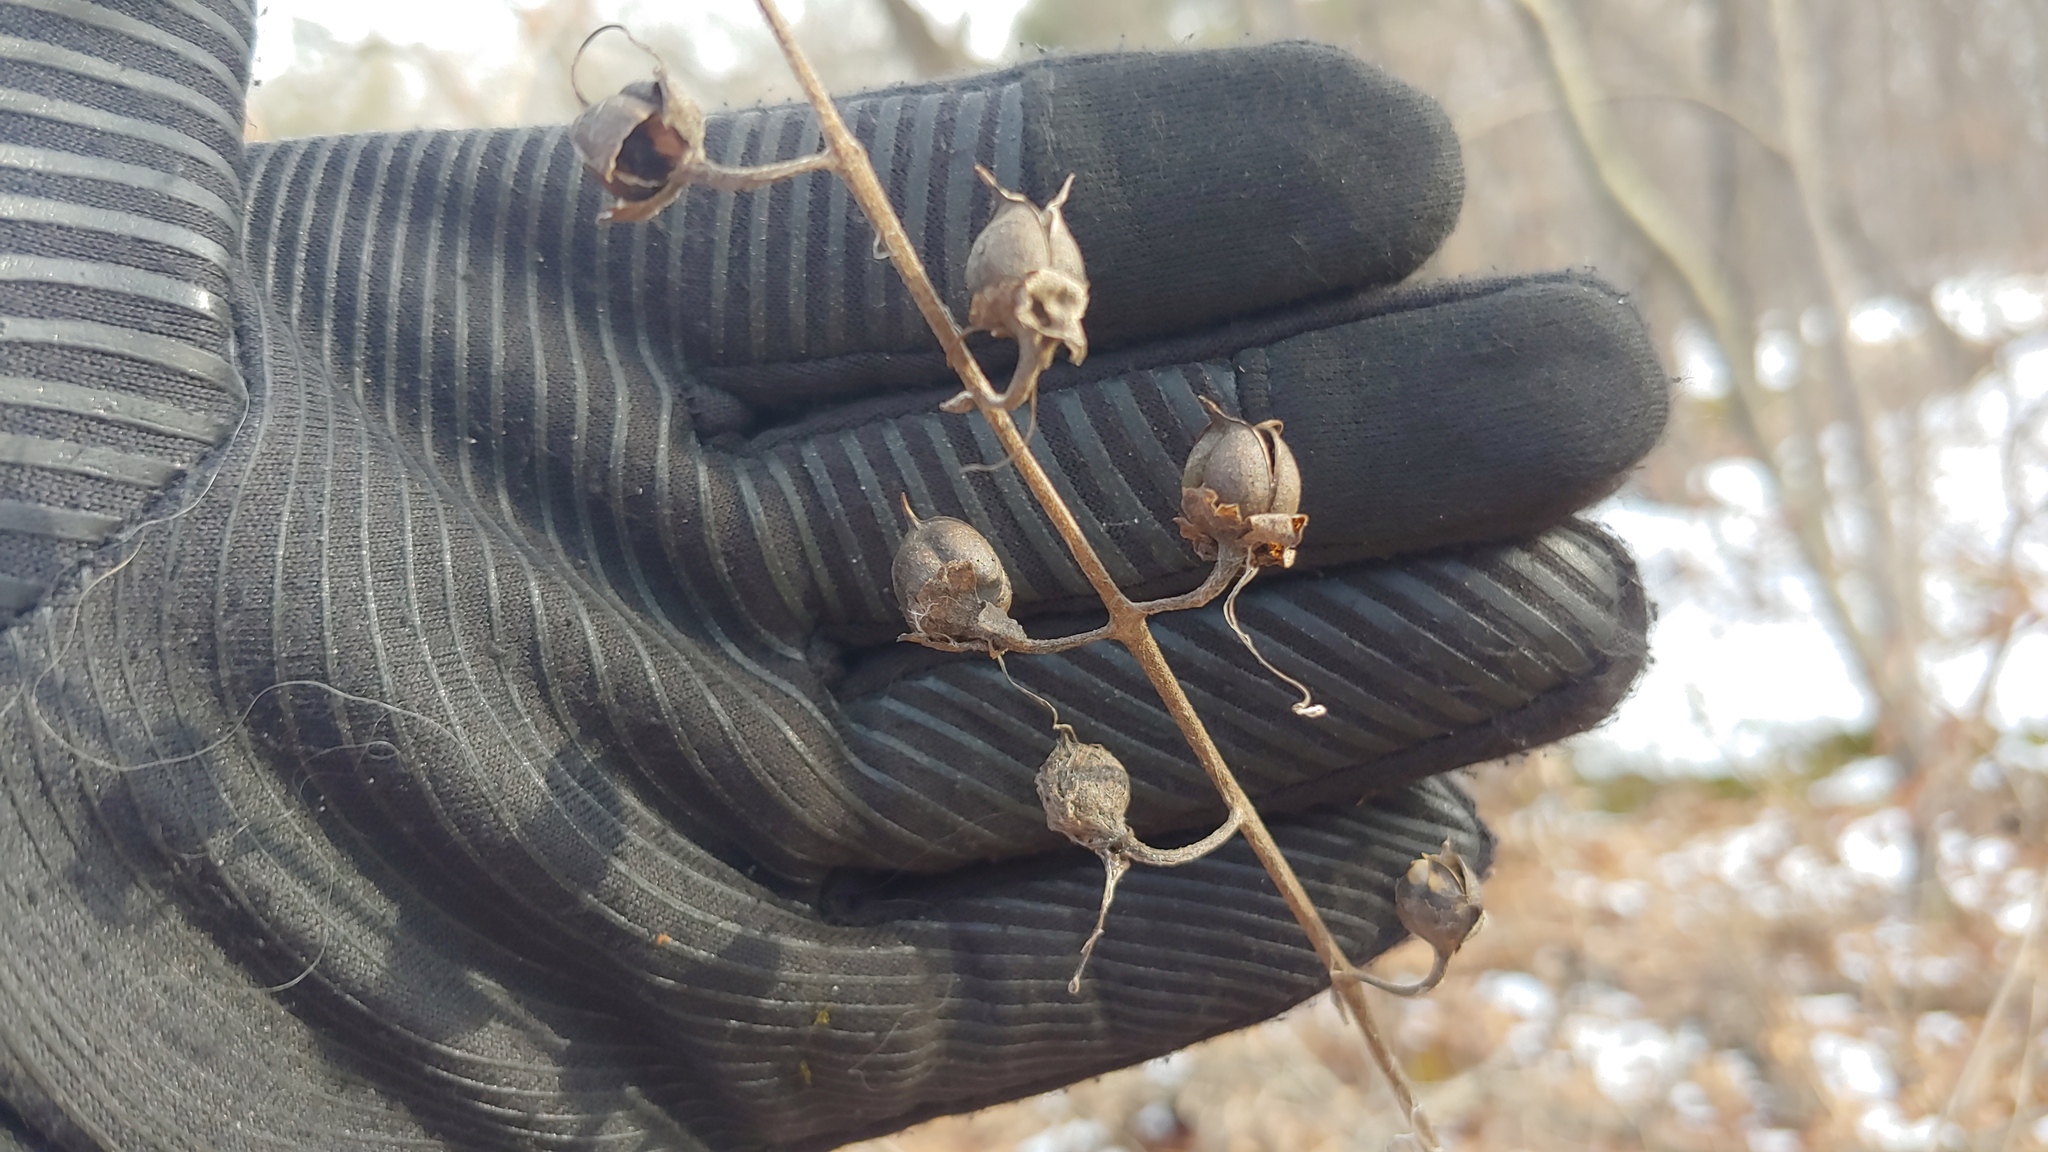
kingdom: Plantae
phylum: Tracheophyta
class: Magnoliopsida
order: Lamiales
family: Orobanchaceae
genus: Aureolaria
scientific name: Aureolaria grandiflora
